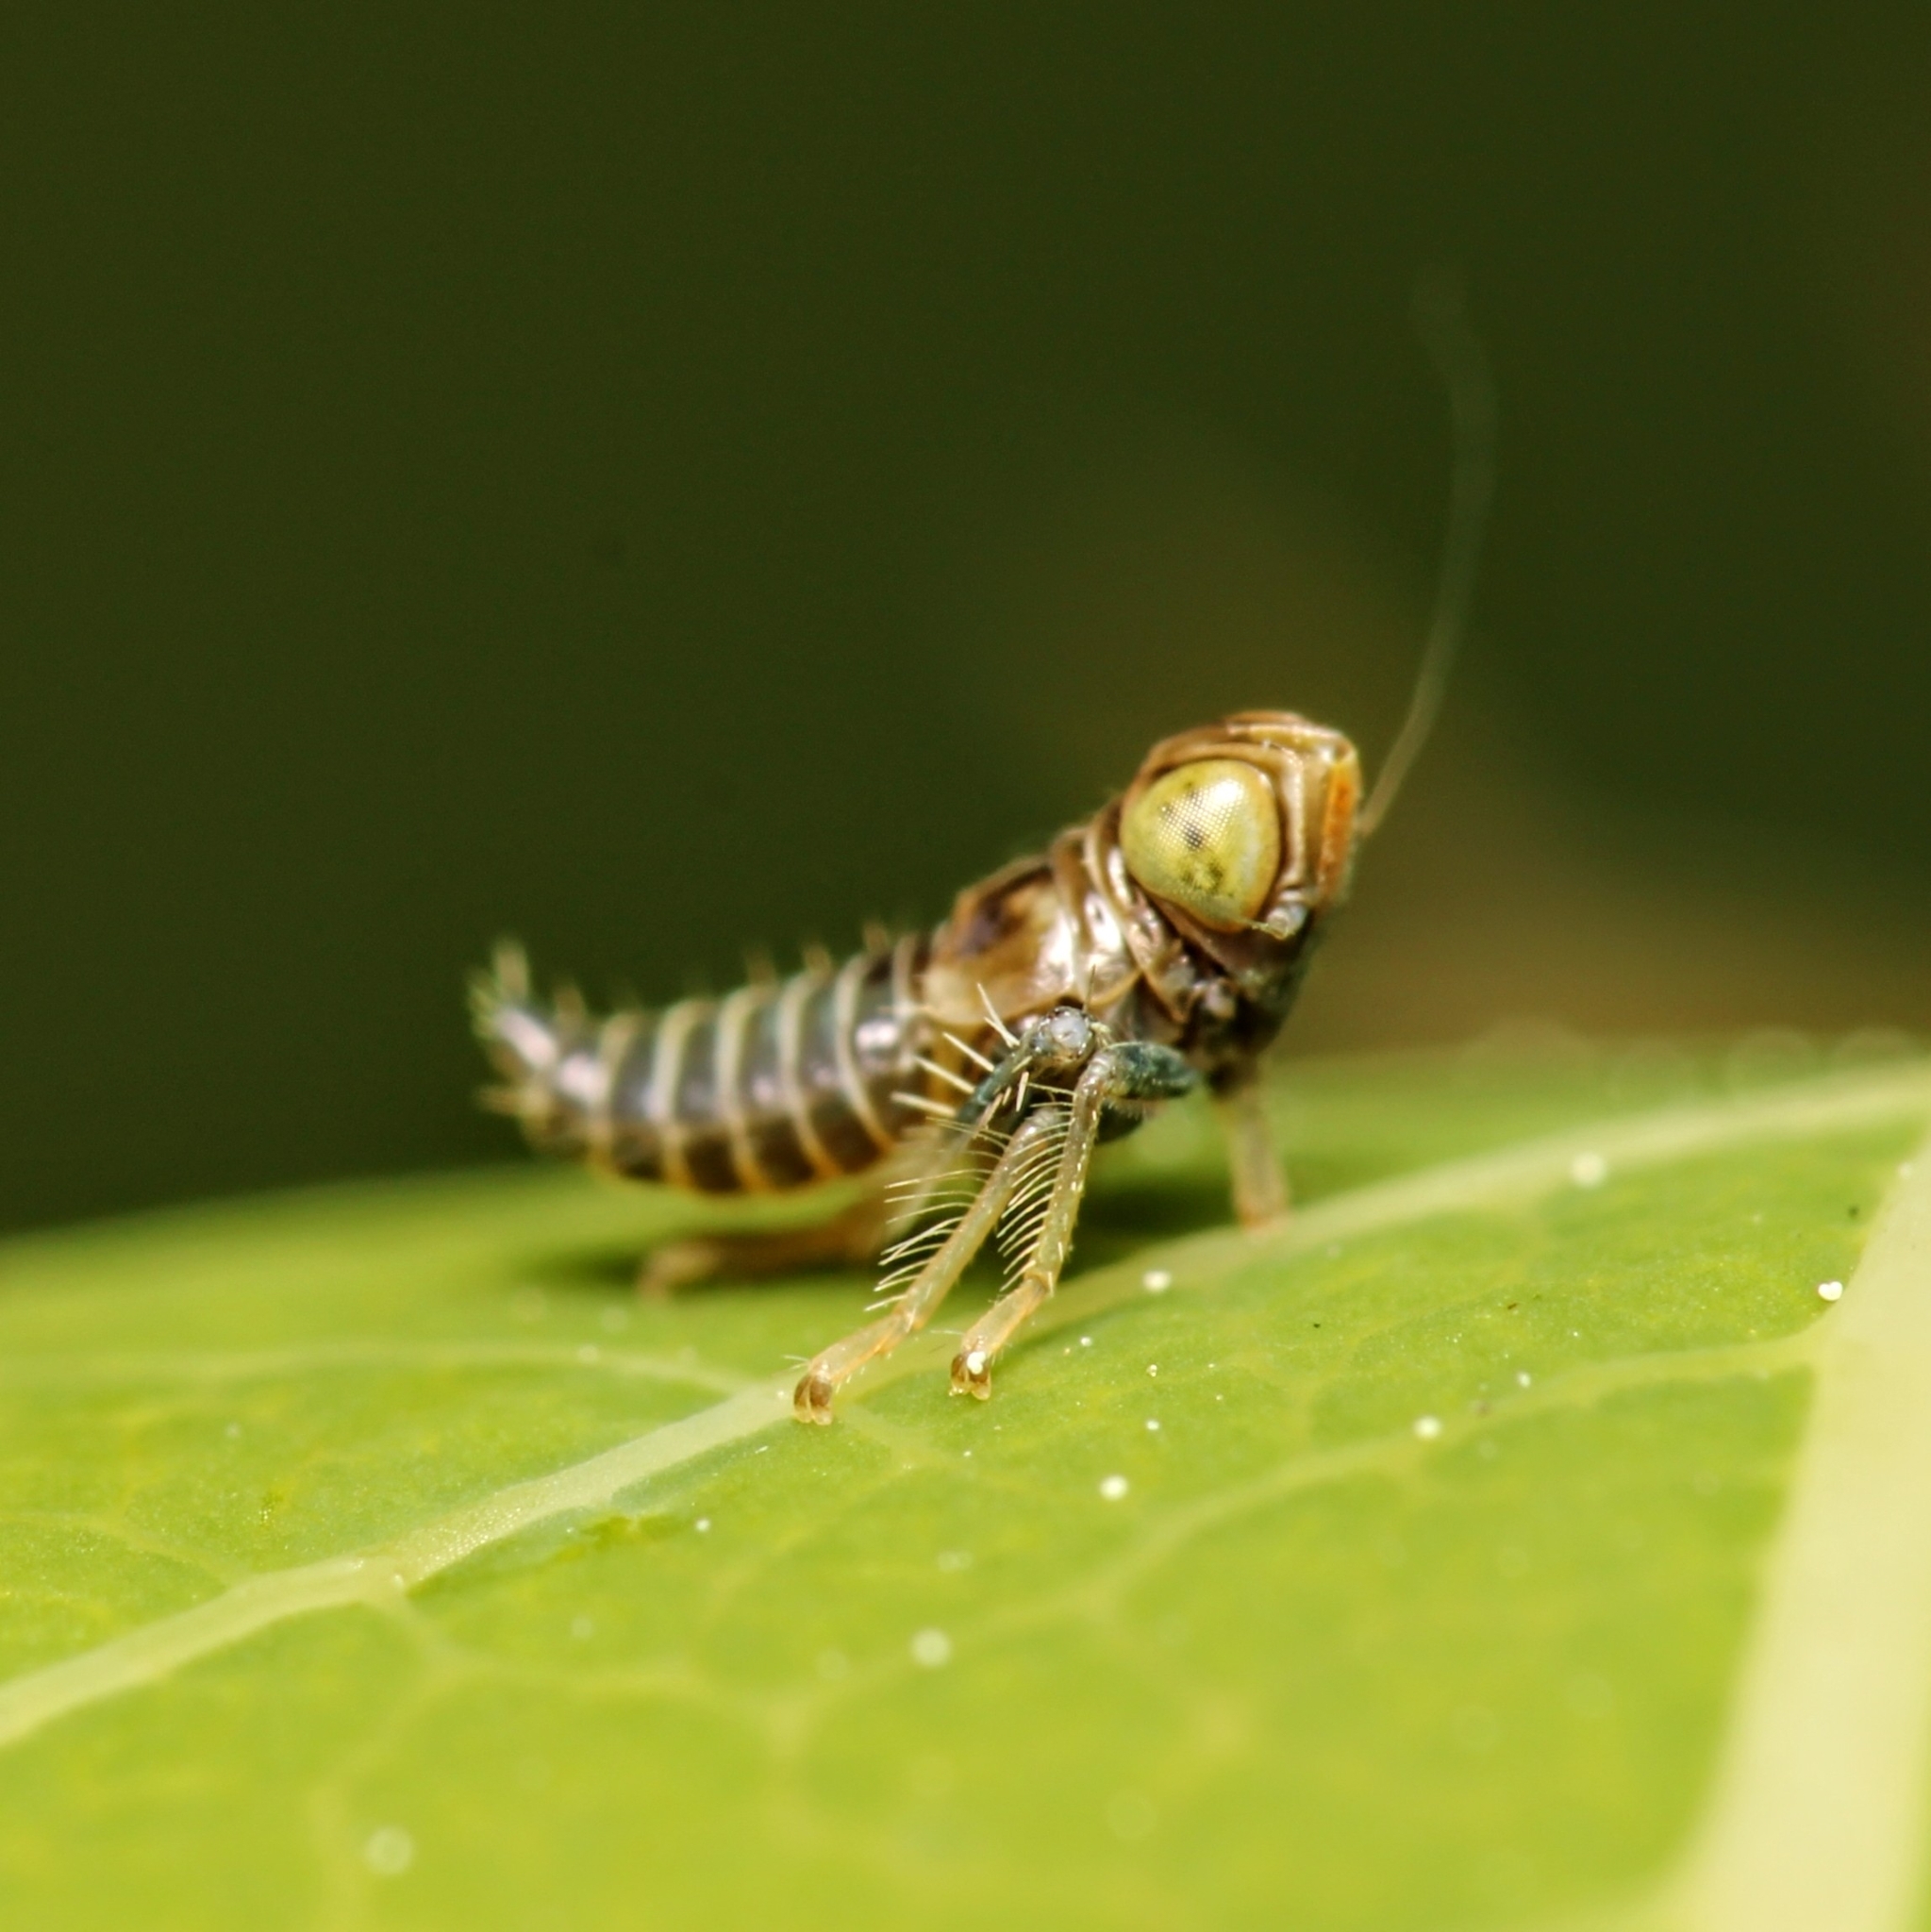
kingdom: Animalia
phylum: Arthropoda
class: Insecta
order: Hemiptera
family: Cicadellidae
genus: Jikradia
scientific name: Jikradia olitoria
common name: Coppery leafhopper
